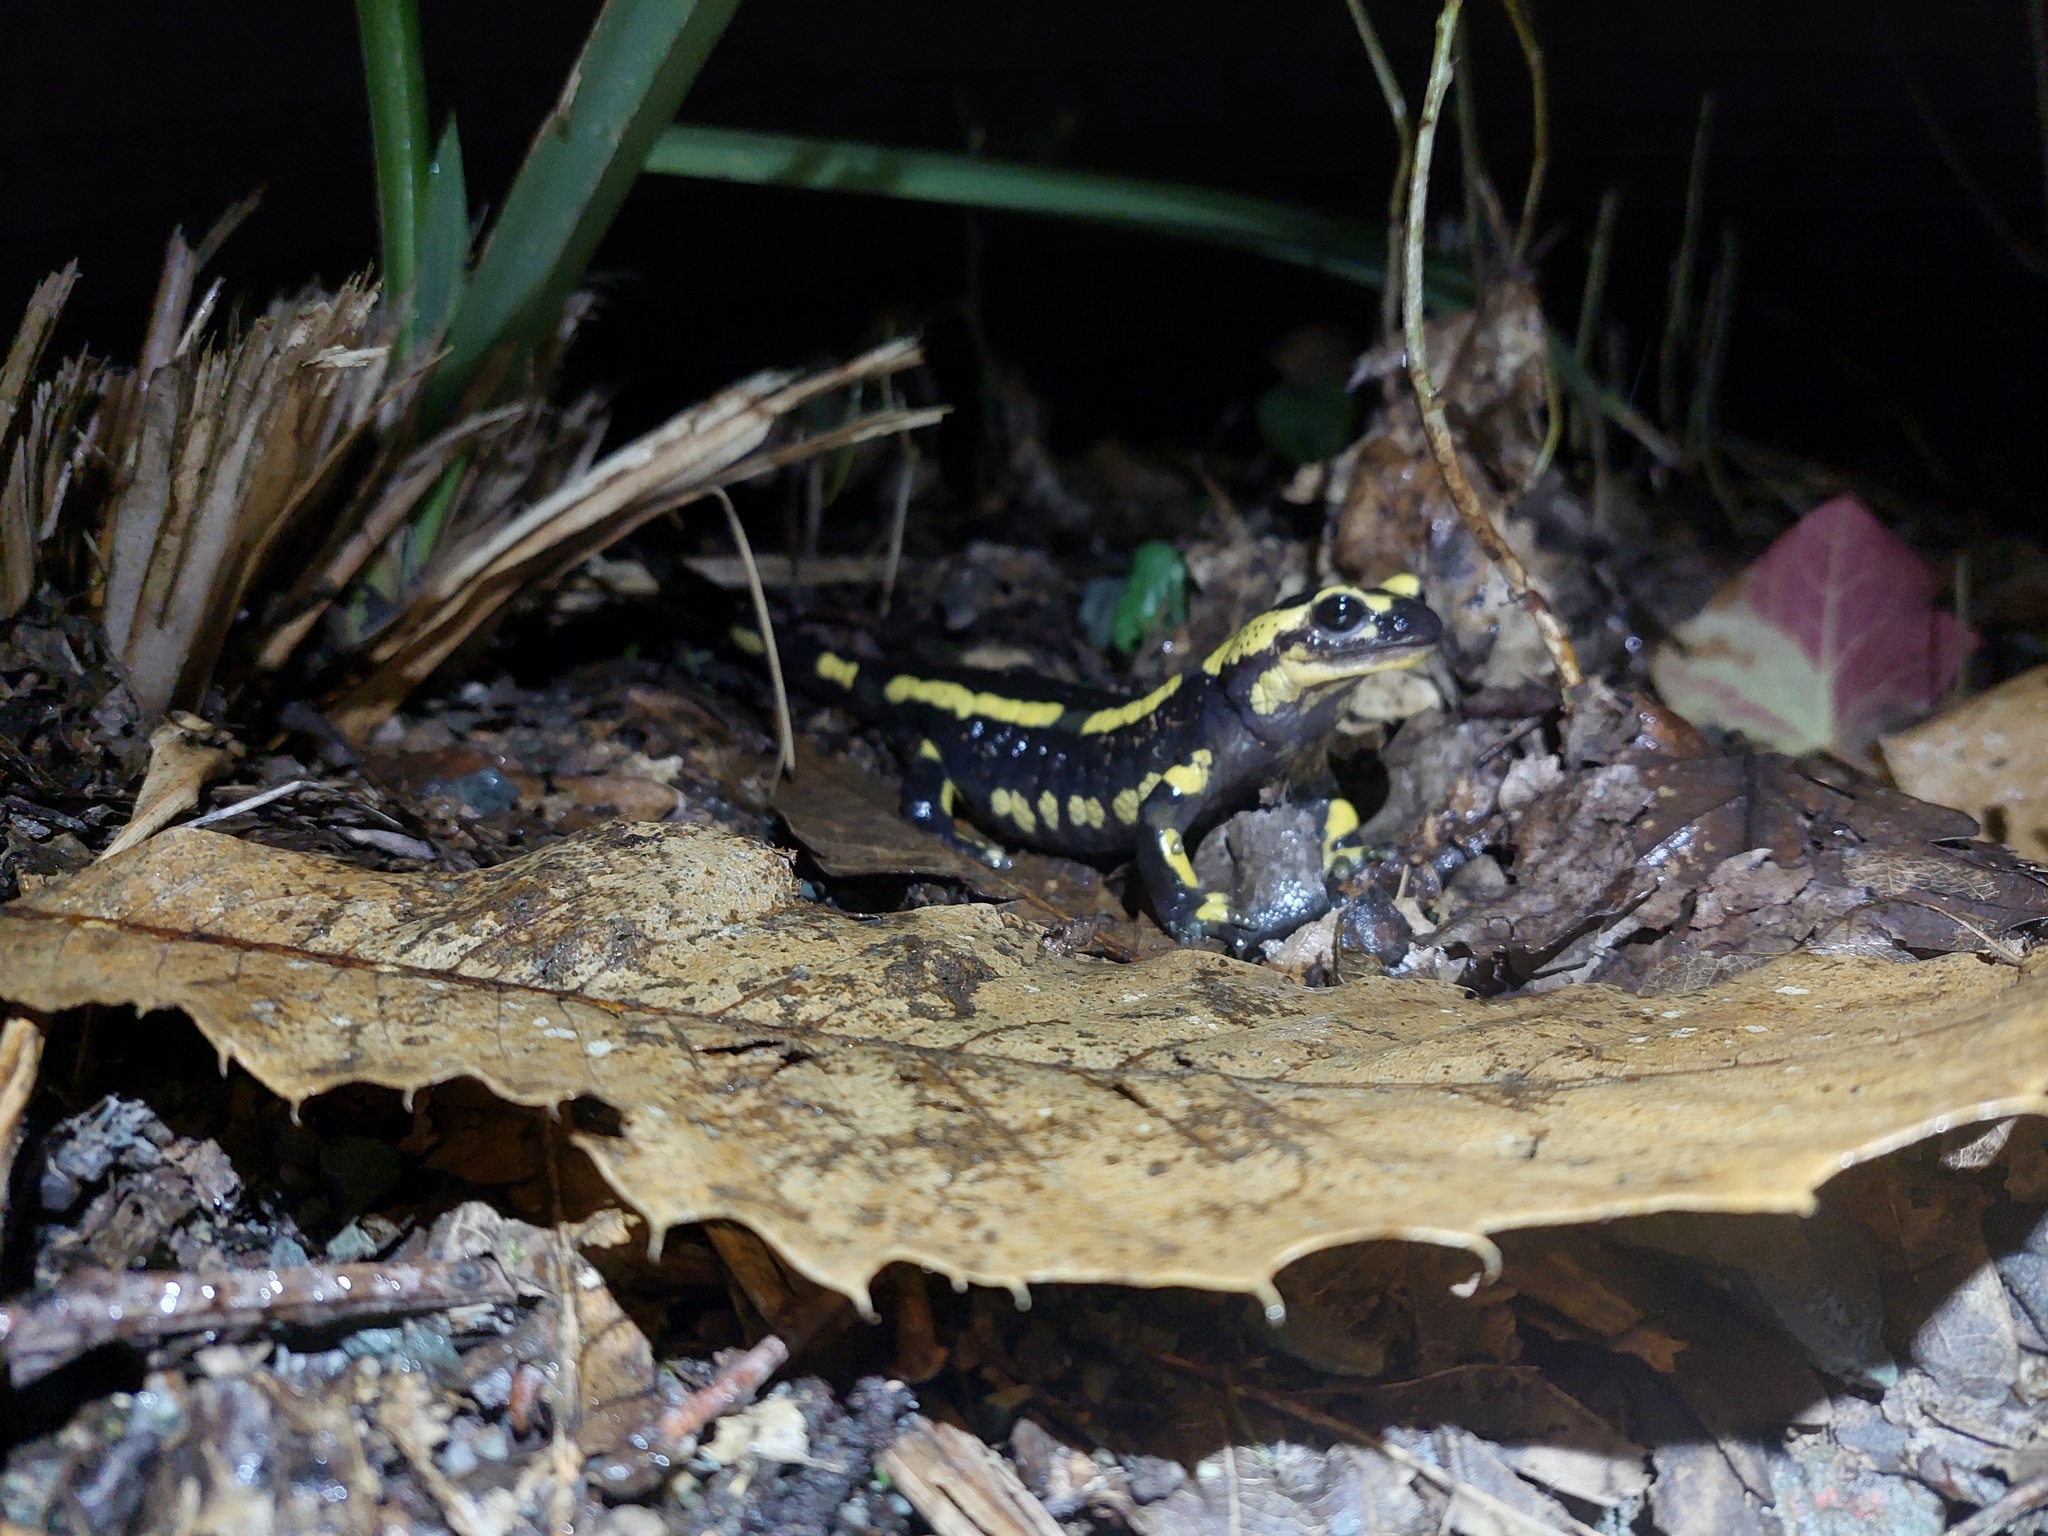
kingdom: Animalia
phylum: Chordata
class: Amphibia
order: Caudata
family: Salamandridae
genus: Salamandra
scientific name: Salamandra salamandra
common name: Fire salamander
